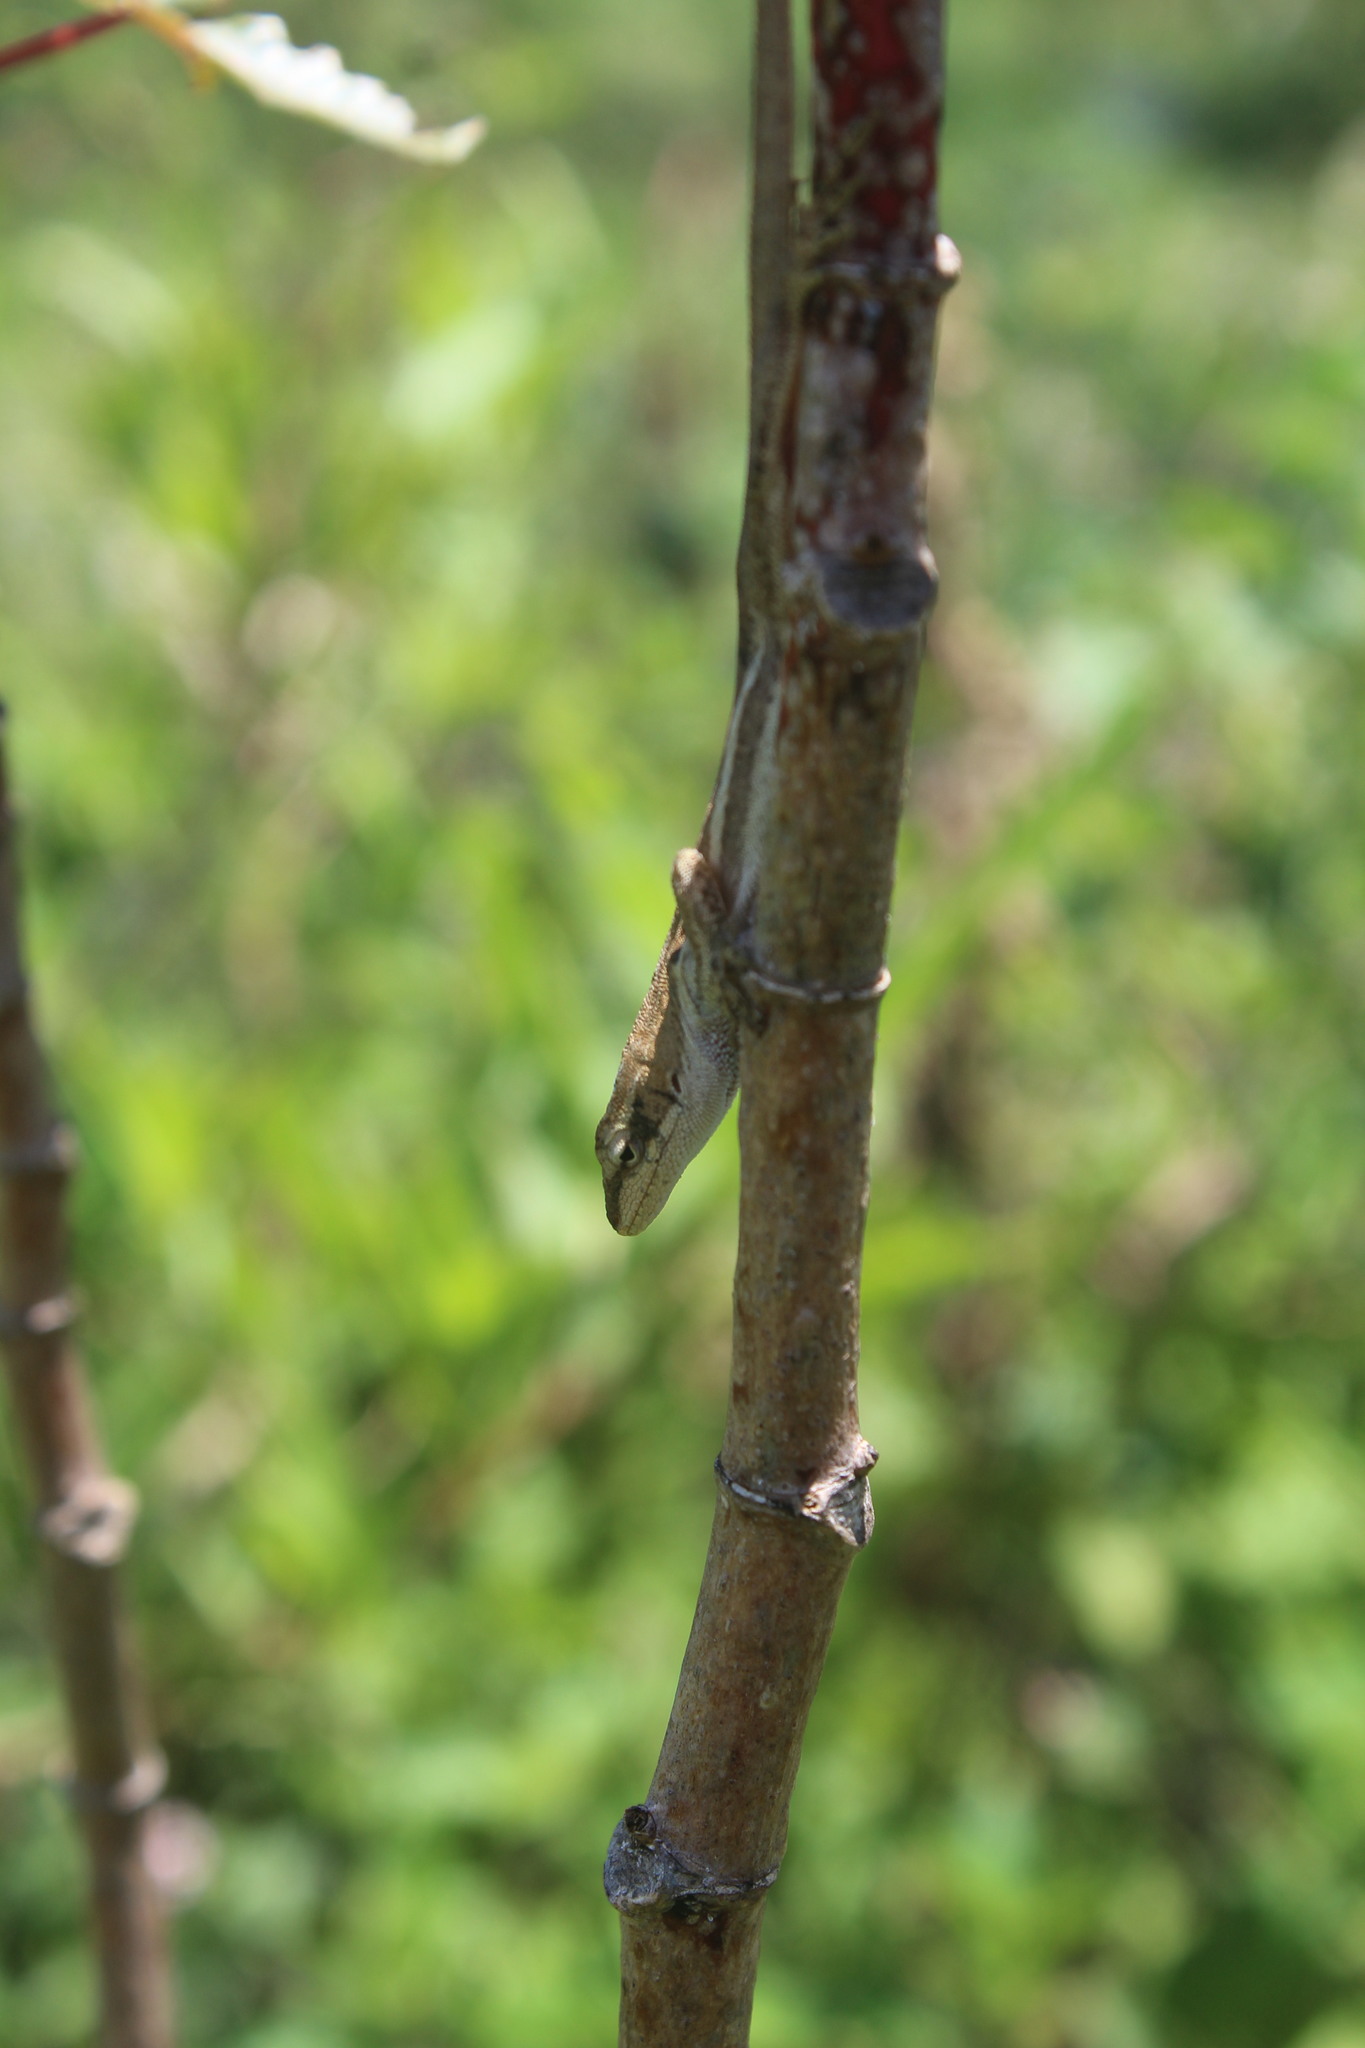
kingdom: Animalia
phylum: Chordata
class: Squamata
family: Dactyloidae
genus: Anolis
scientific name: Anolis quercorum
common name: Gray anole
